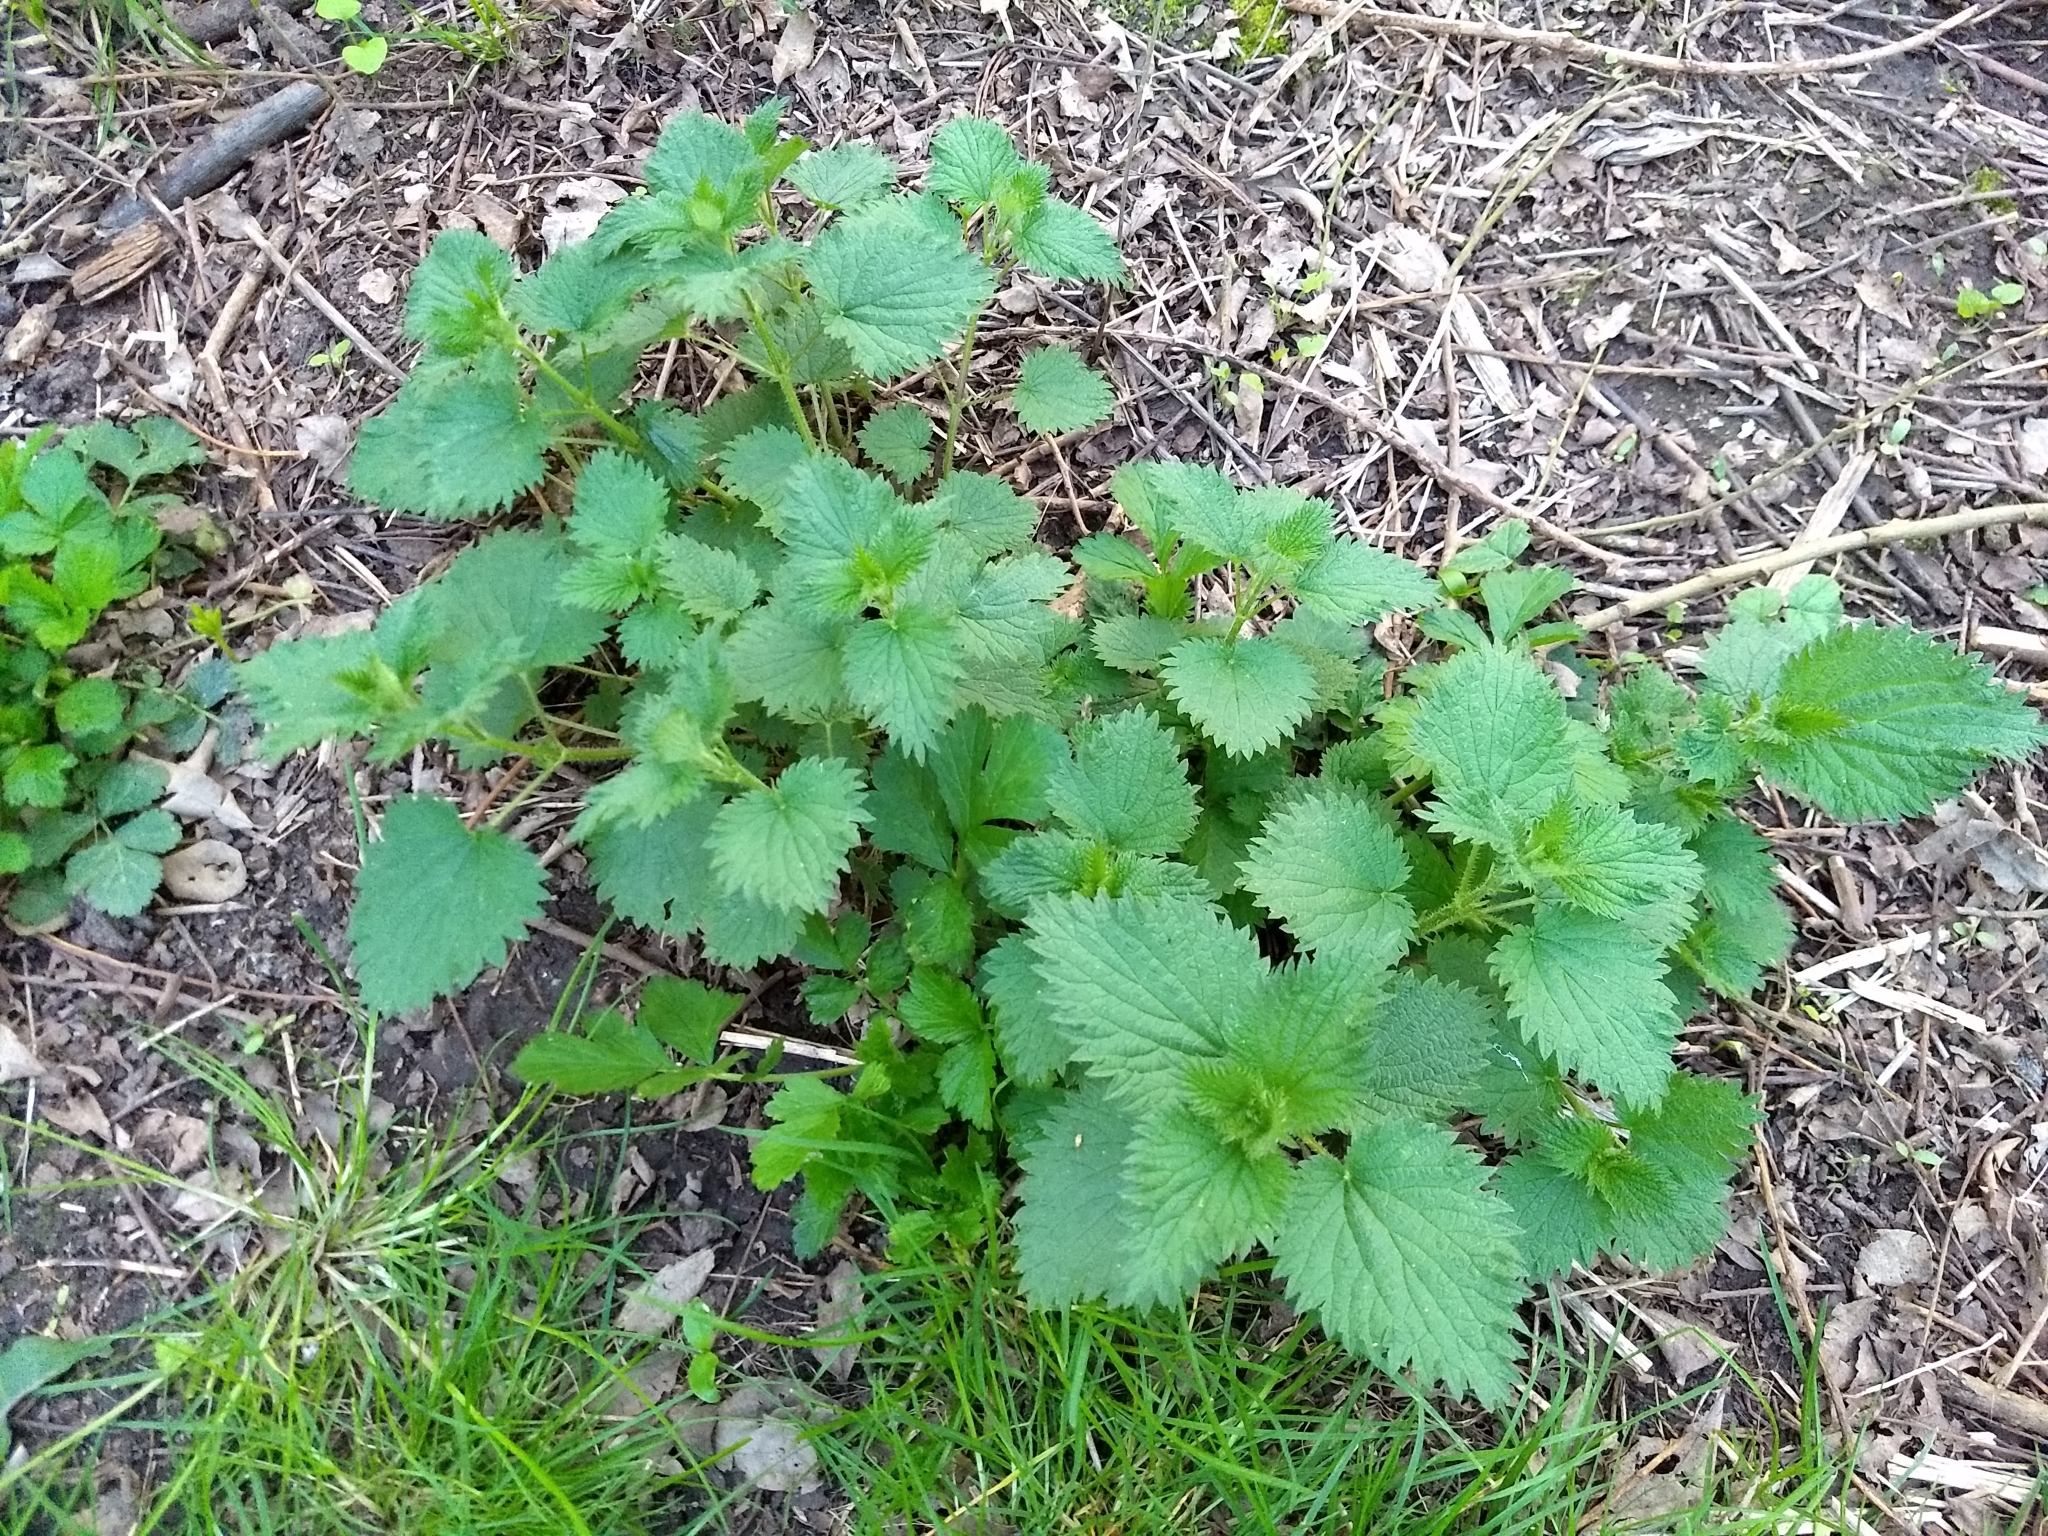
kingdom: Plantae
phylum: Tracheophyta
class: Magnoliopsida
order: Rosales
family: Urticaceae
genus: Urtica
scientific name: Urtica dioica
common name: Common nettle
